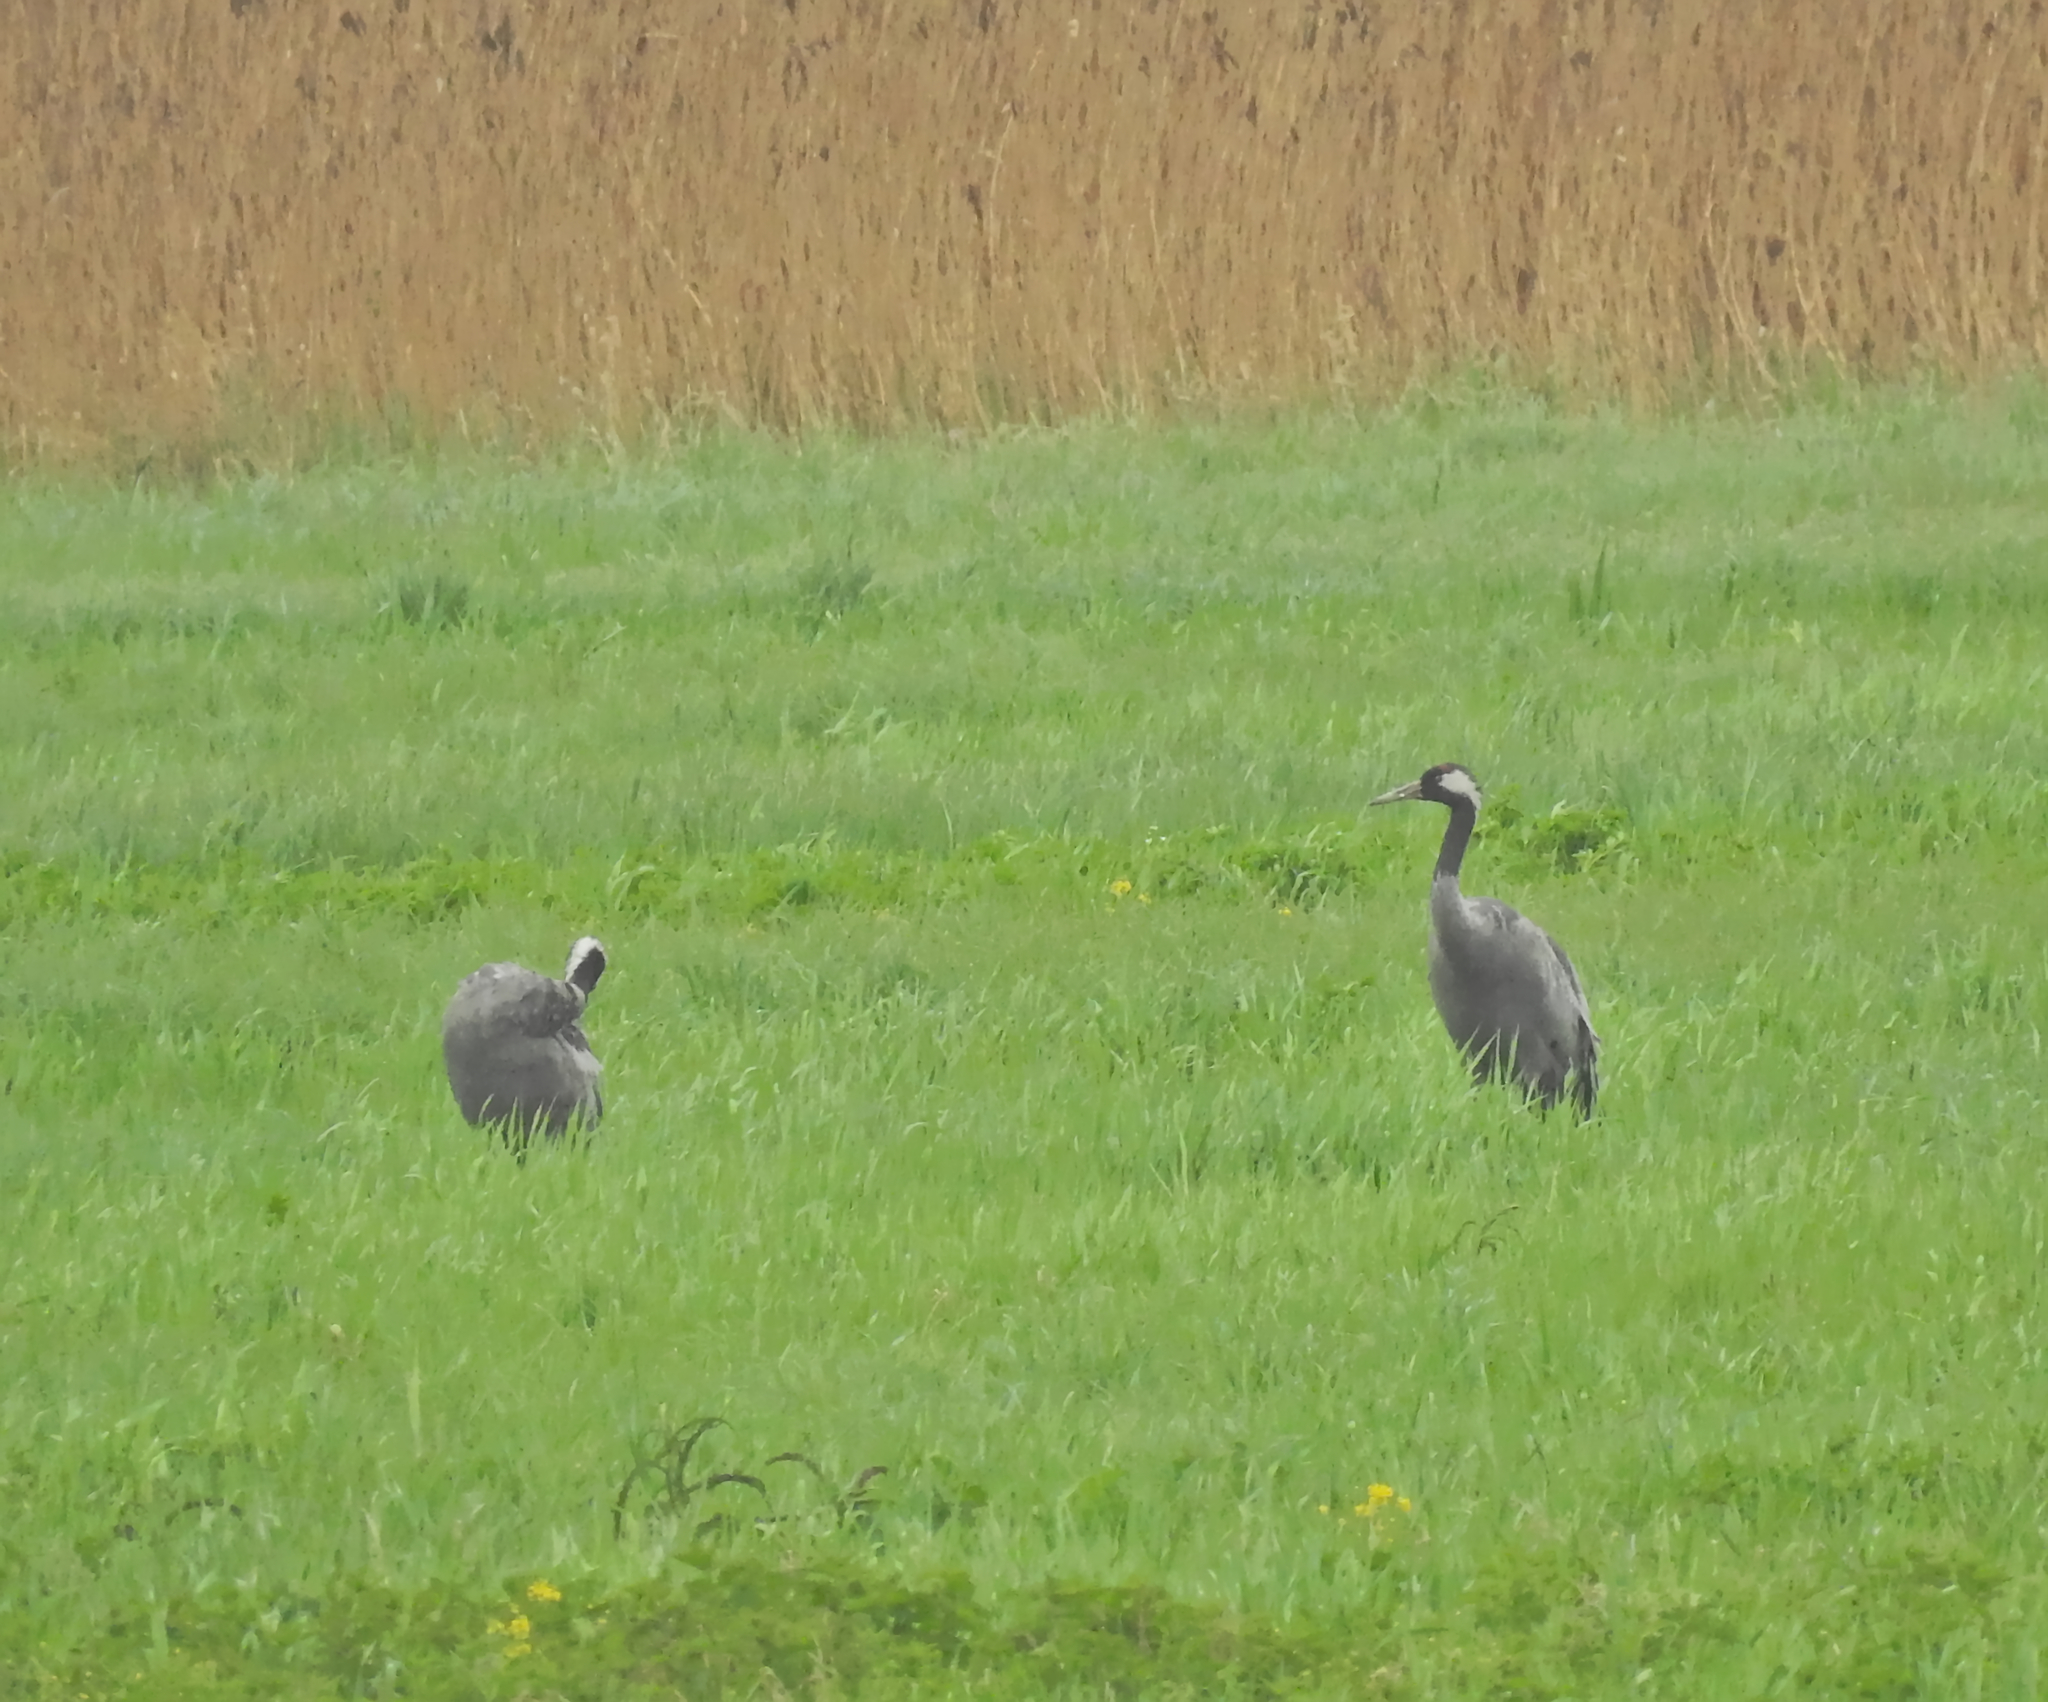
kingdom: Animalia
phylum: Chordata
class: Aves
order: Gruiformes
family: Gruidae
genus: Grus
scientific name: Grus grus
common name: Common crane
